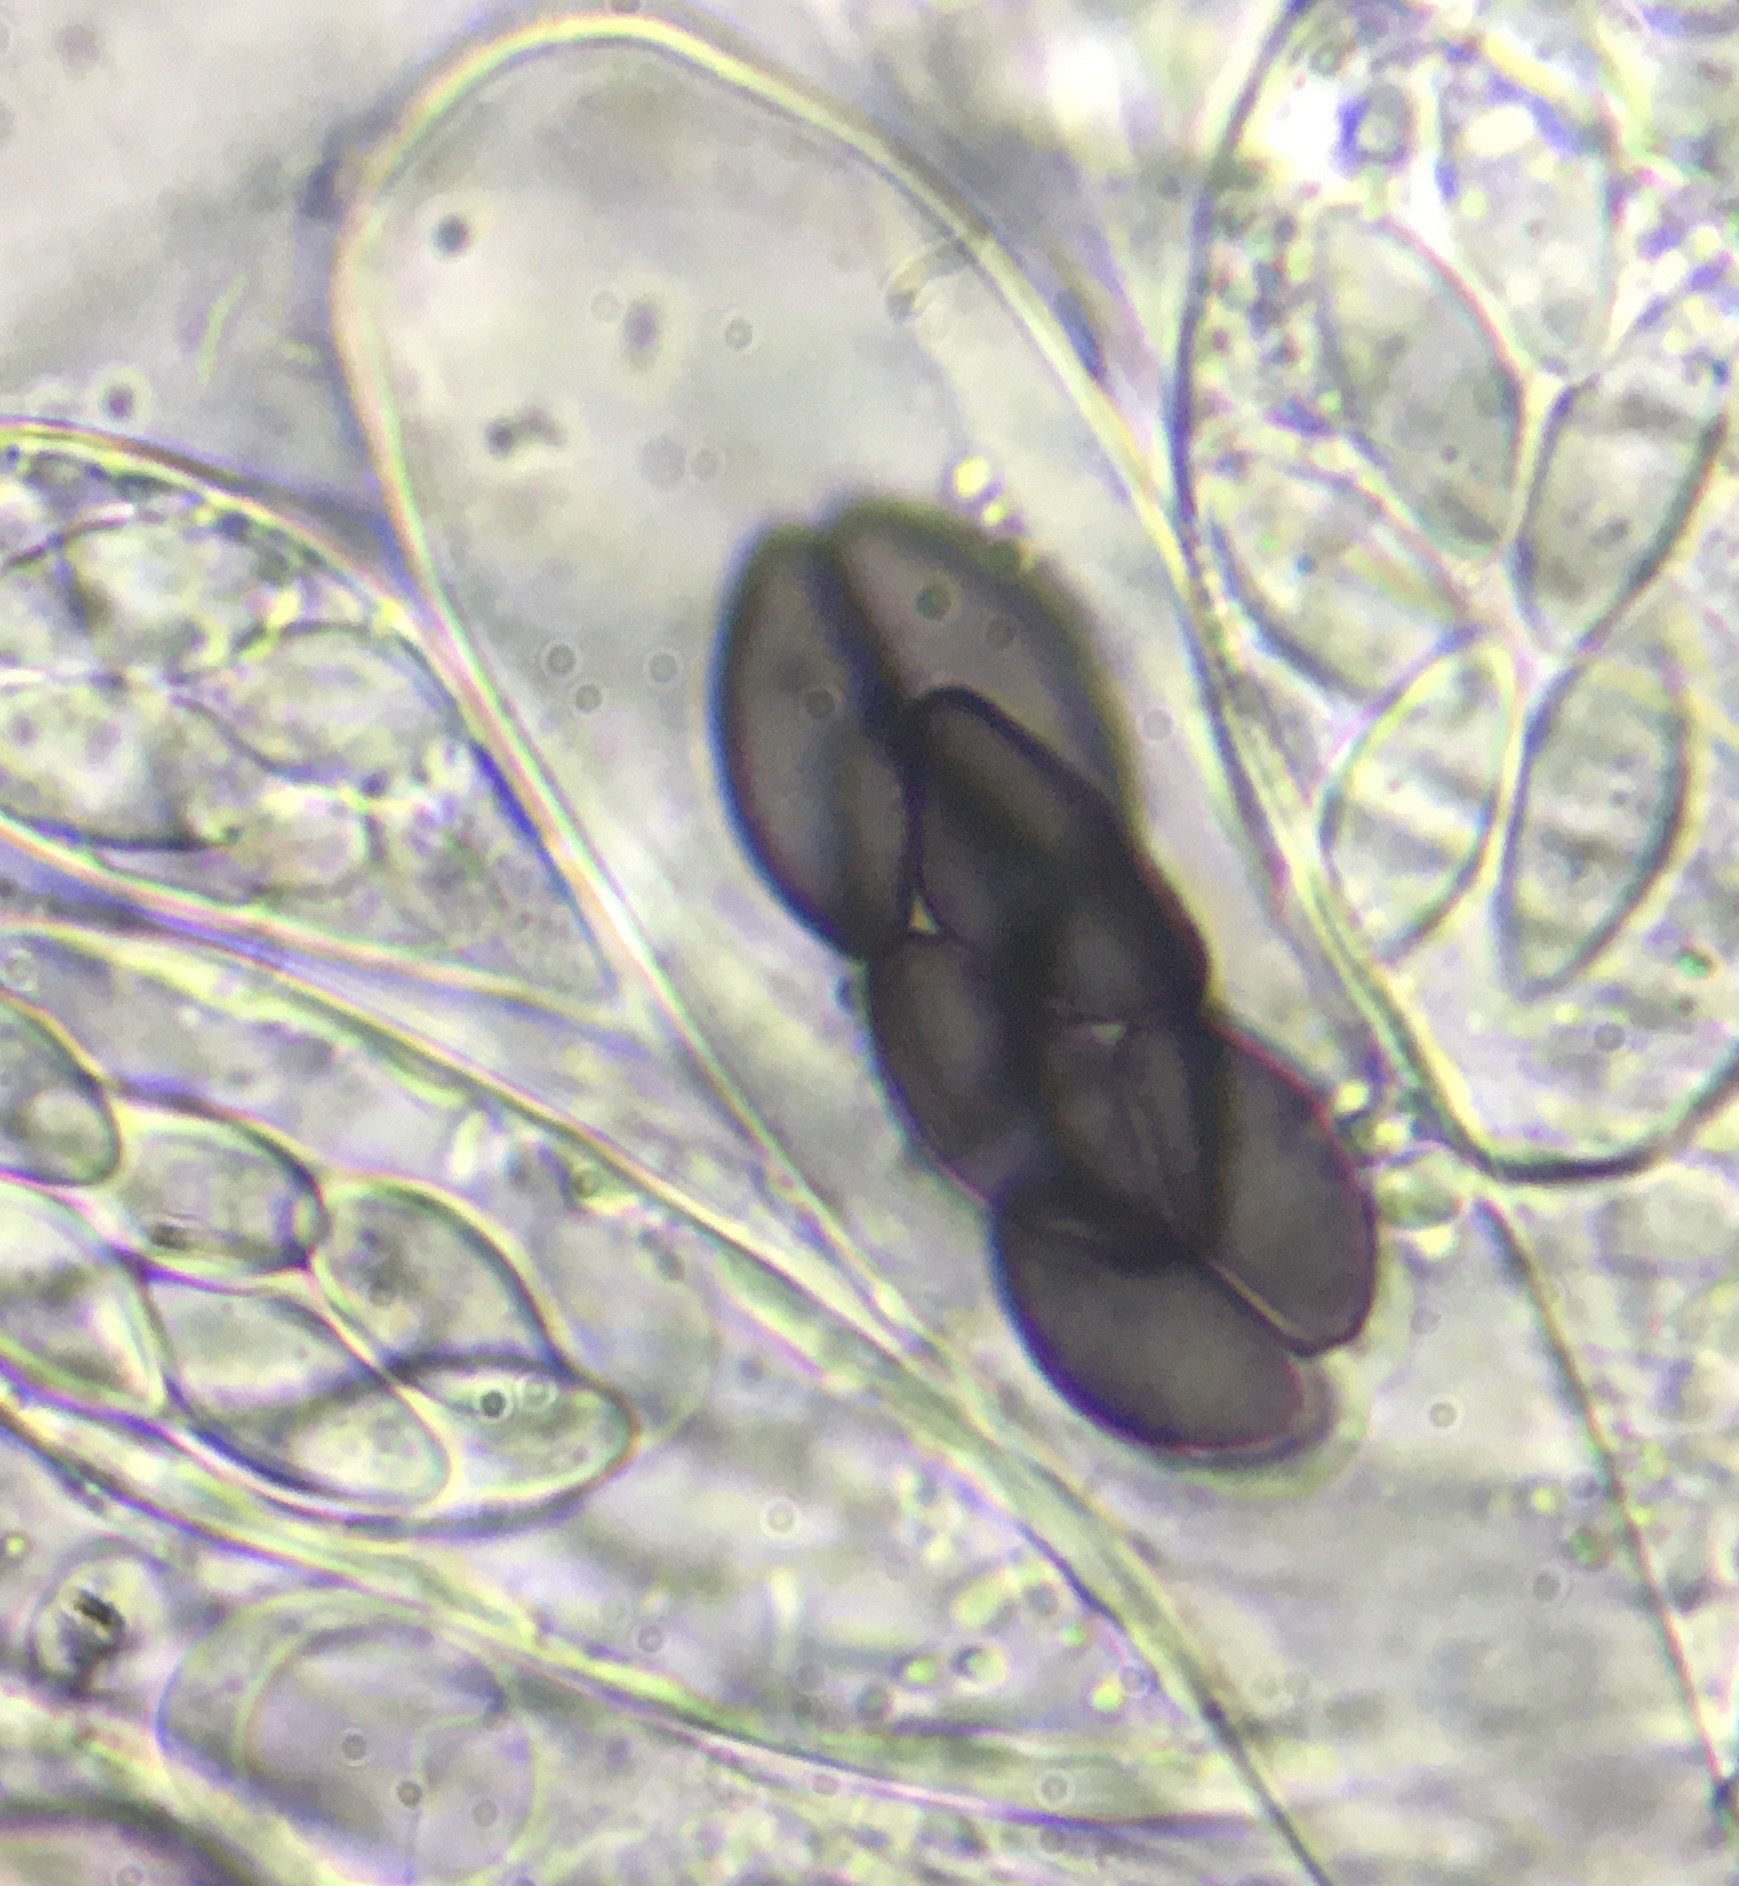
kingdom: Fungi
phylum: Ascomycota
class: Pezizomycetes
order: Pezizales
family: Ascobolaceae
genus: Saccobolus
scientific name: Saccobolus depauperatus
